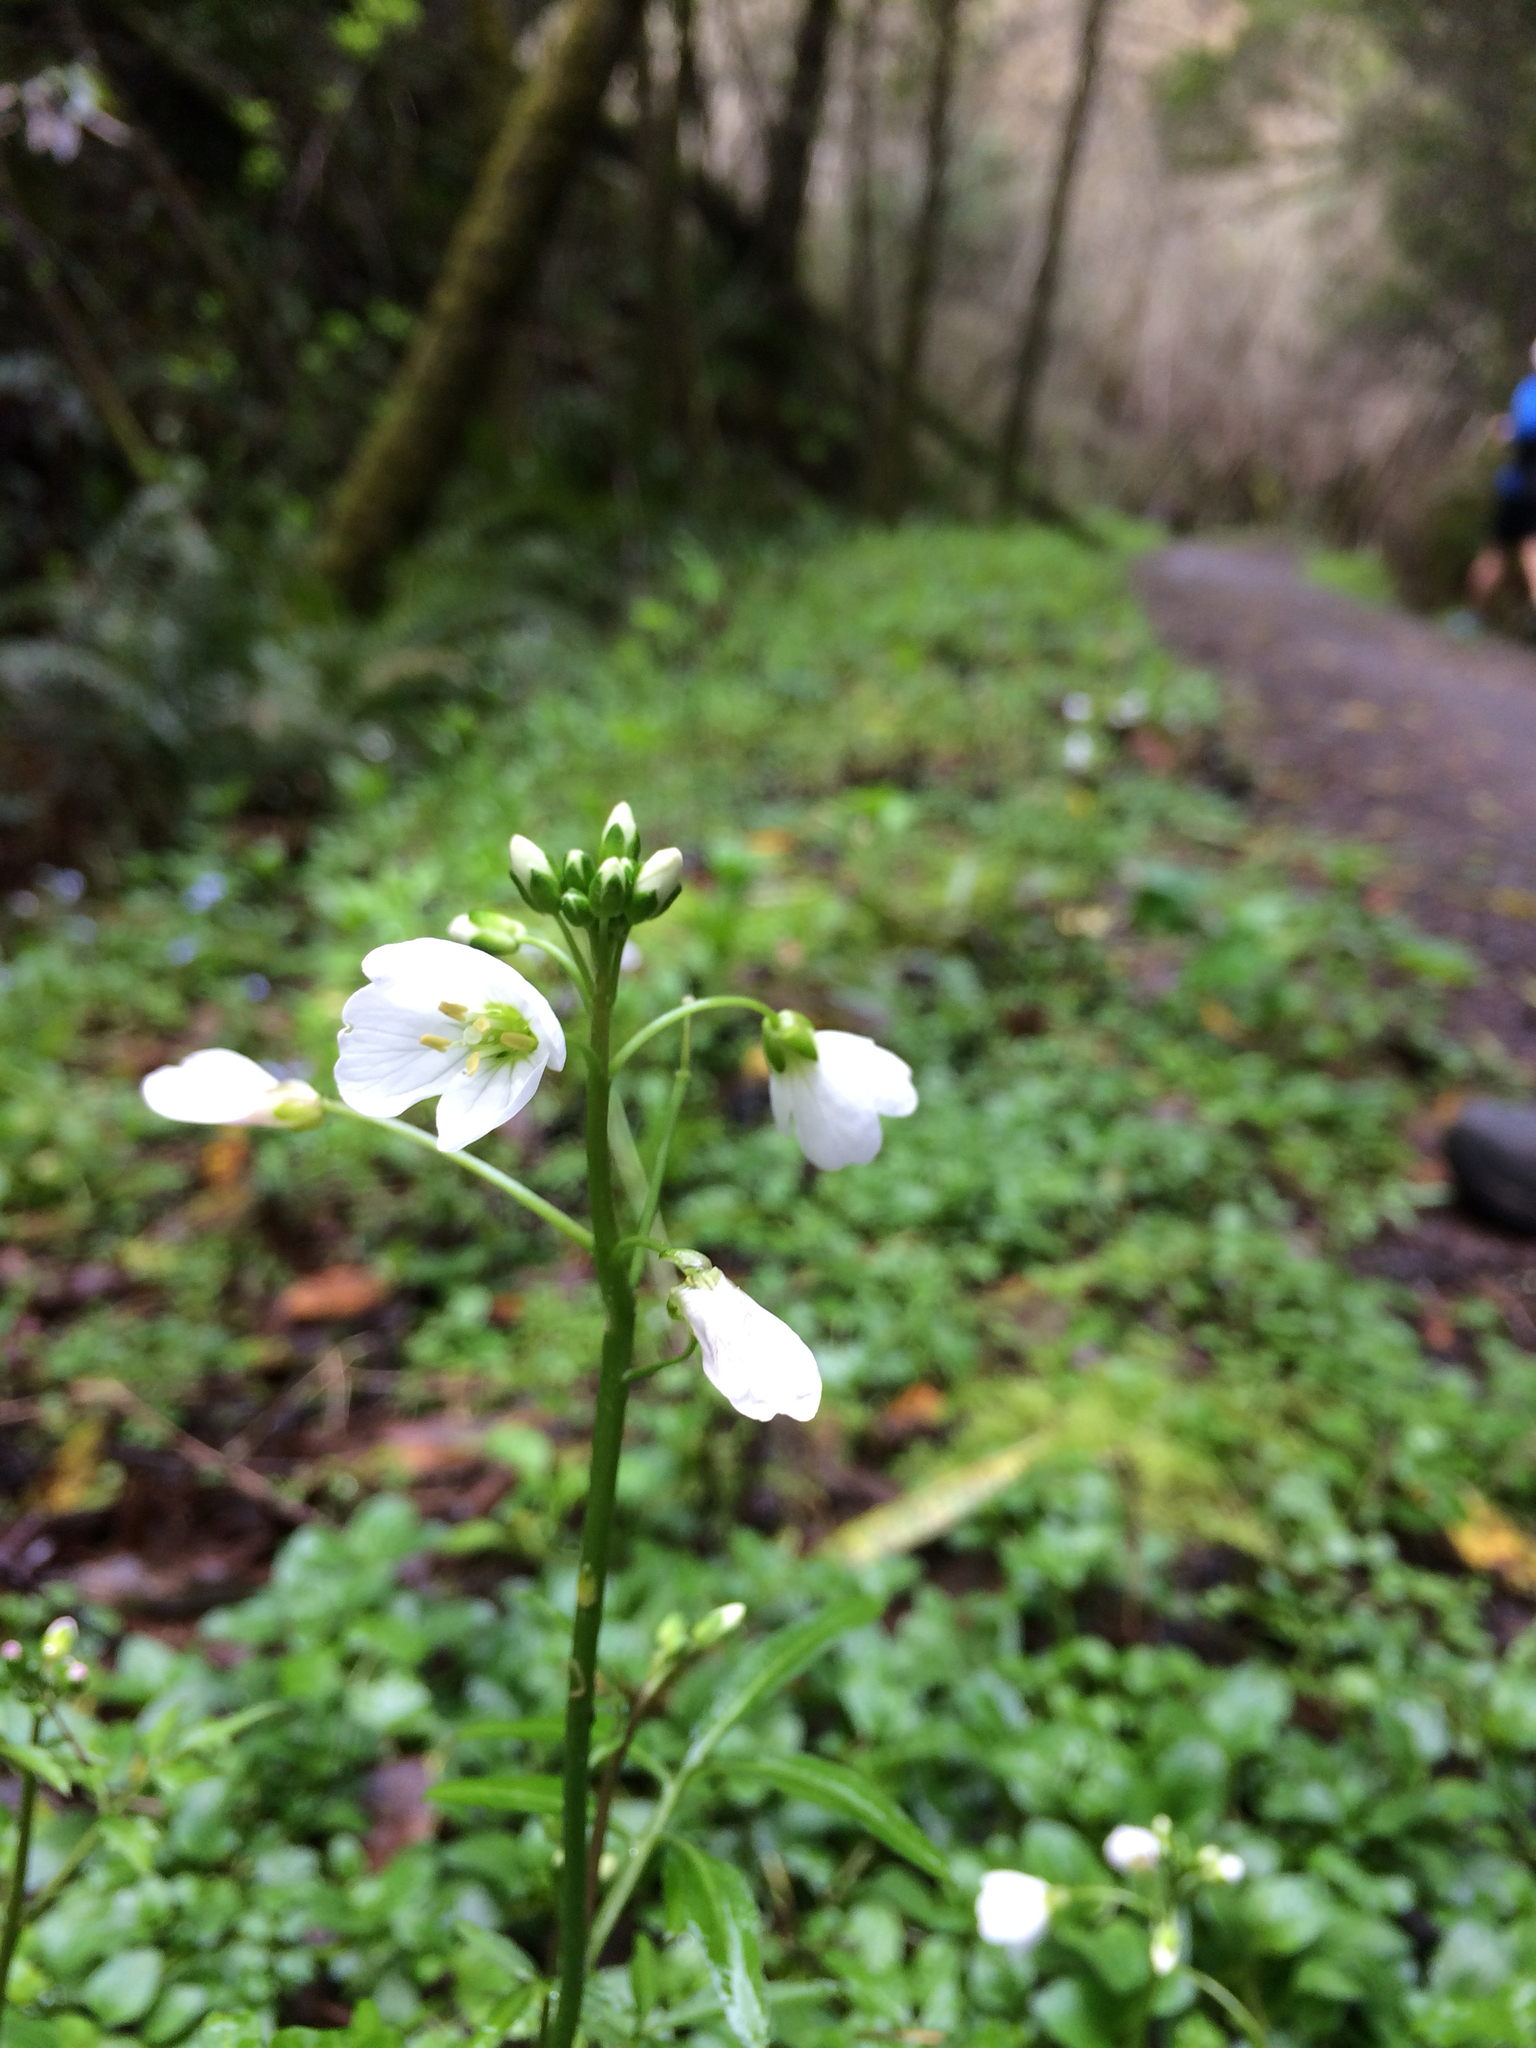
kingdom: Plantae
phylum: Tracheophyta
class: Magnoliopsida
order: Brassicales
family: Brassicaceae
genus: Cardamine
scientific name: Cardamine californica
